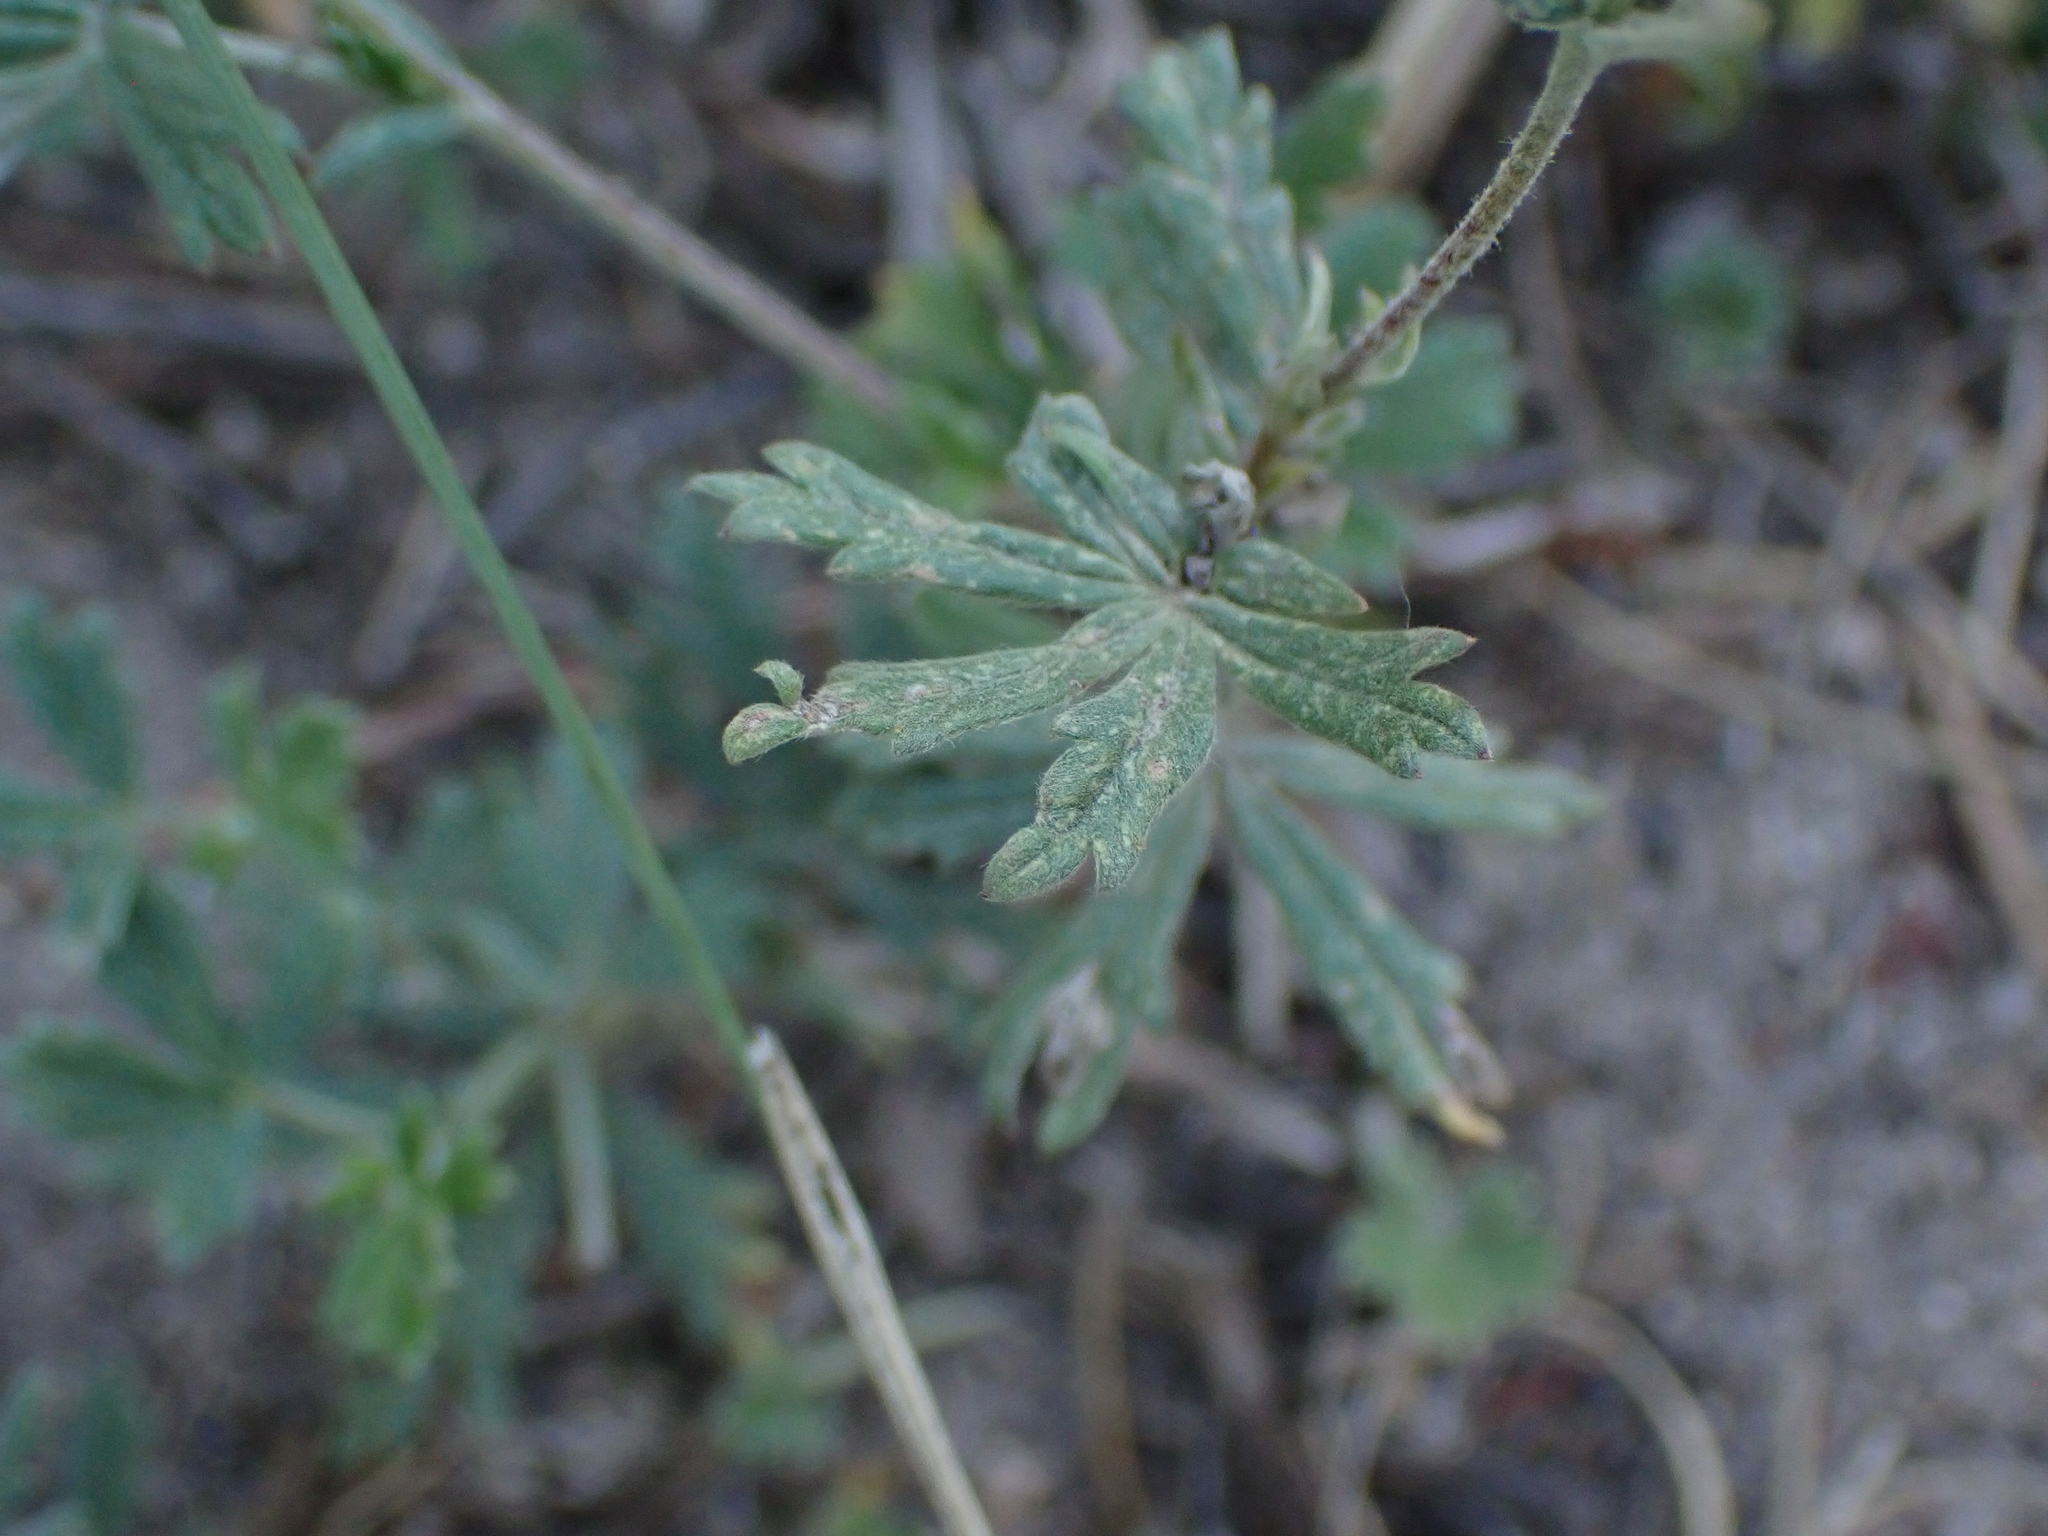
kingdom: Plantae
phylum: Tracheophyta
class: Magnoliopsida
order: Rosales
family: Rosaceae
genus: Potentilla
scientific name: Potentilla argentea
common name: Hoary cinquefoil
